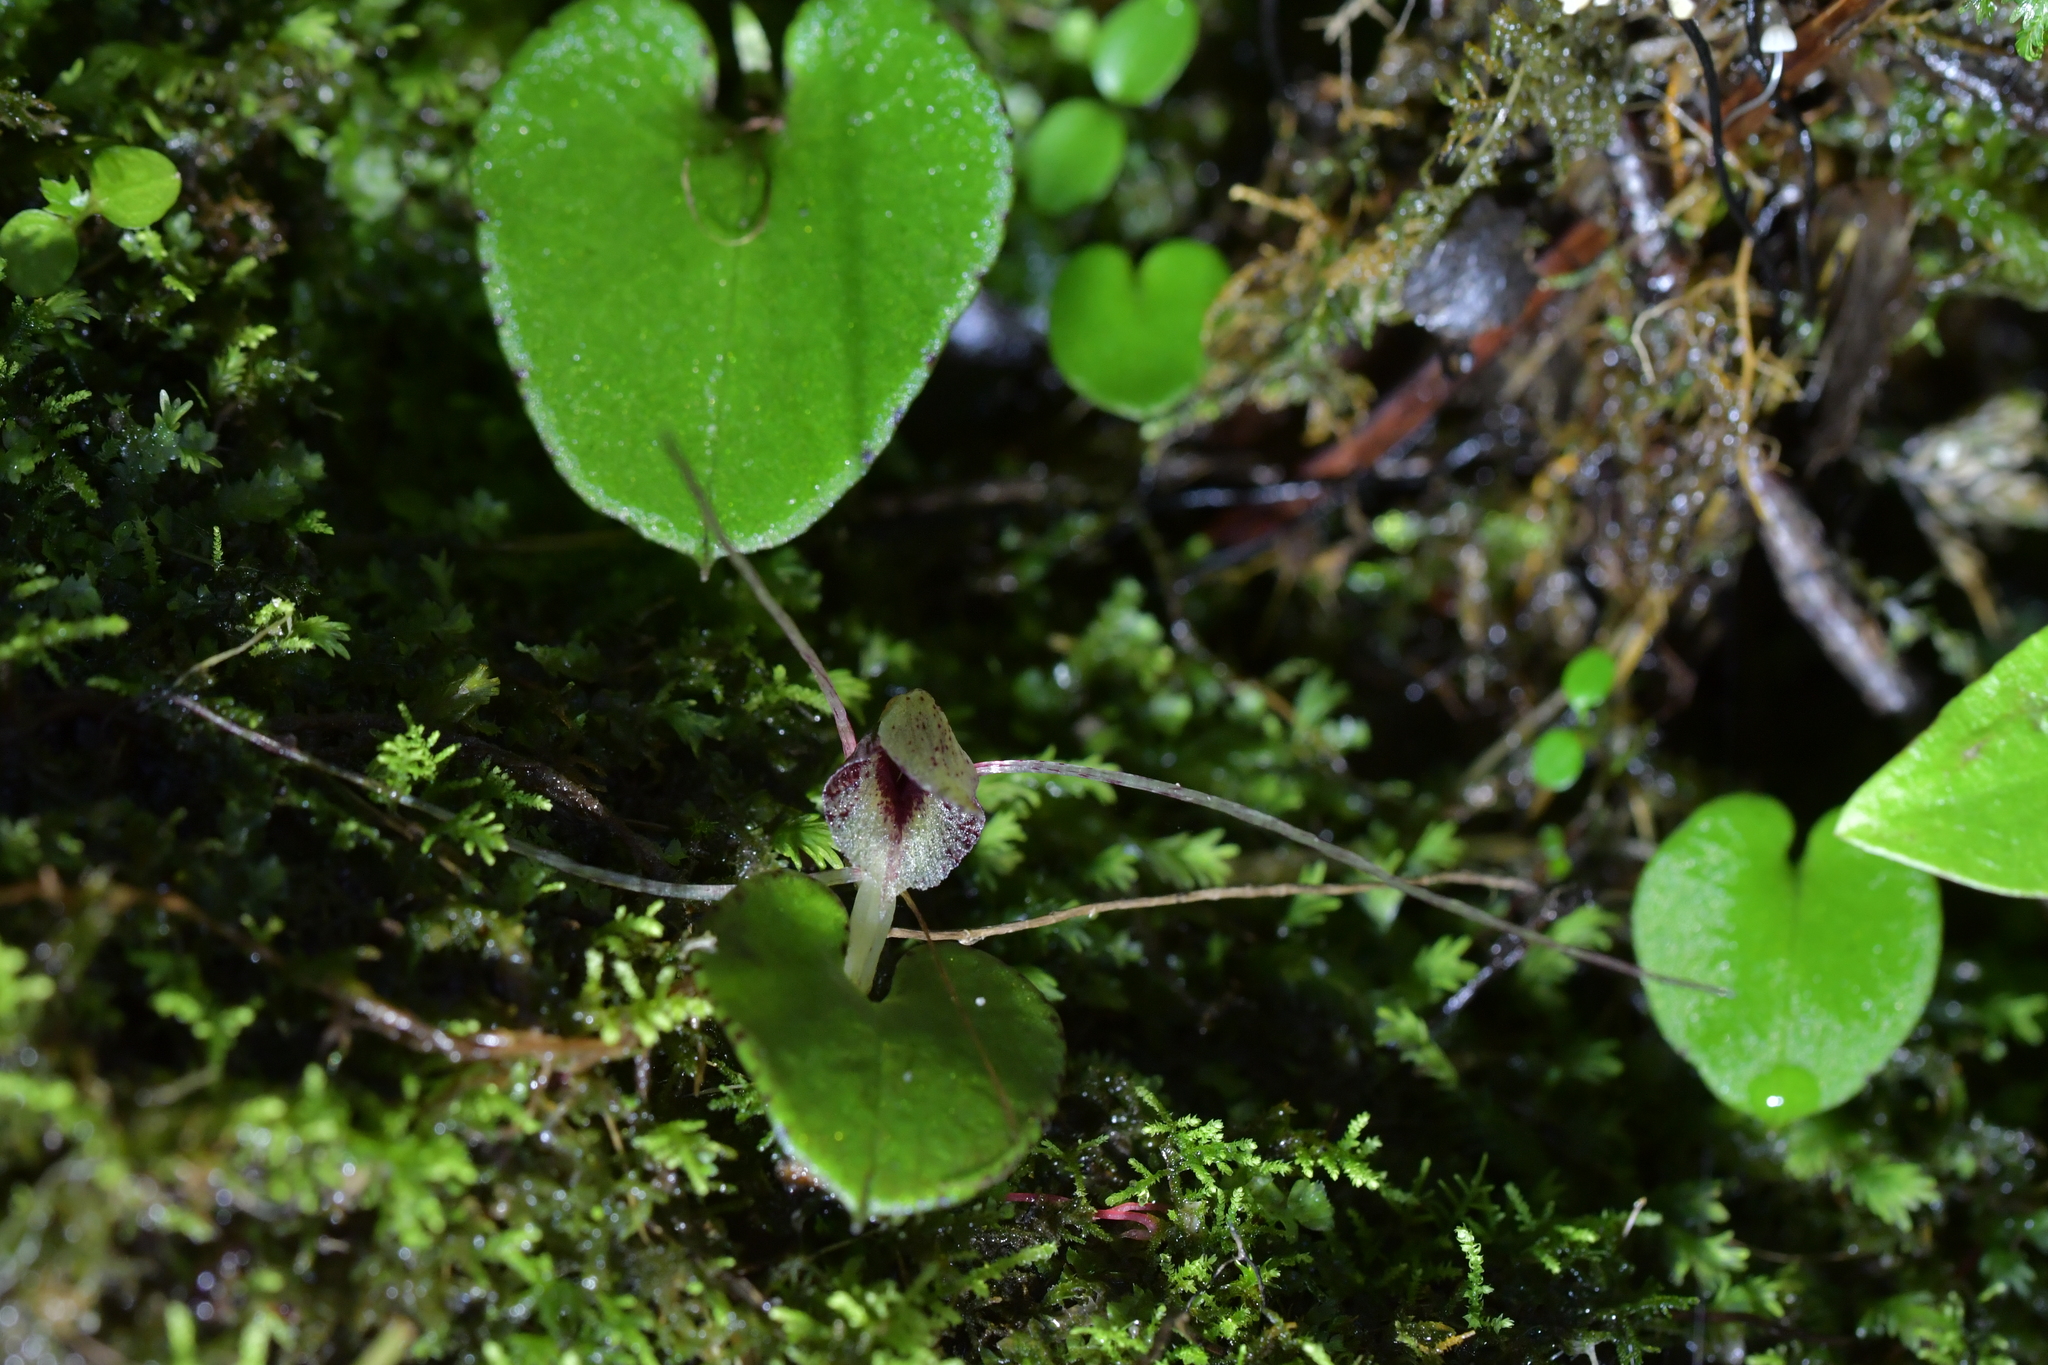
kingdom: Plantae
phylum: Tracheophyta
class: Liliopsida
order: Asparagales
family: Orchidaceae
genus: Corybas
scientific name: Corybas hatchii
